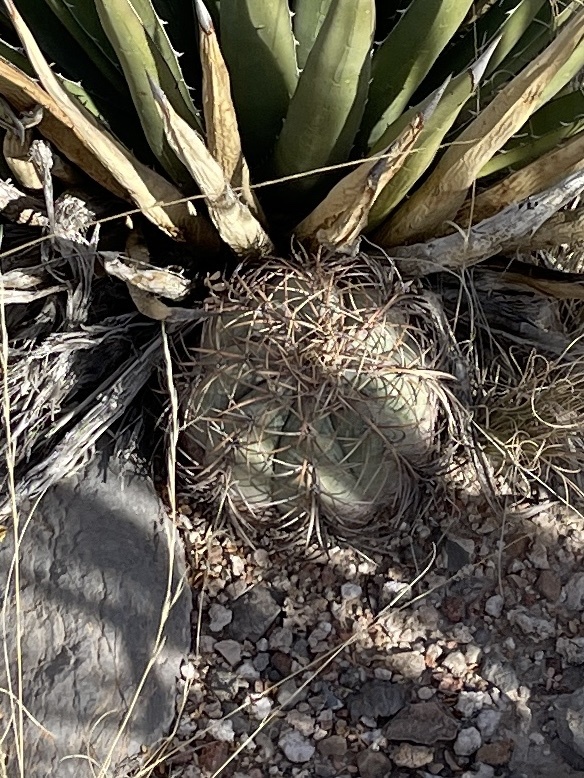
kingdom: Plantae
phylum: Tracheophyta
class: Magnoliopsida
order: Caryophyllales
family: Cactaceae
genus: Echinocactus
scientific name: Echinocactus horizonthalonius
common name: Devilshead
